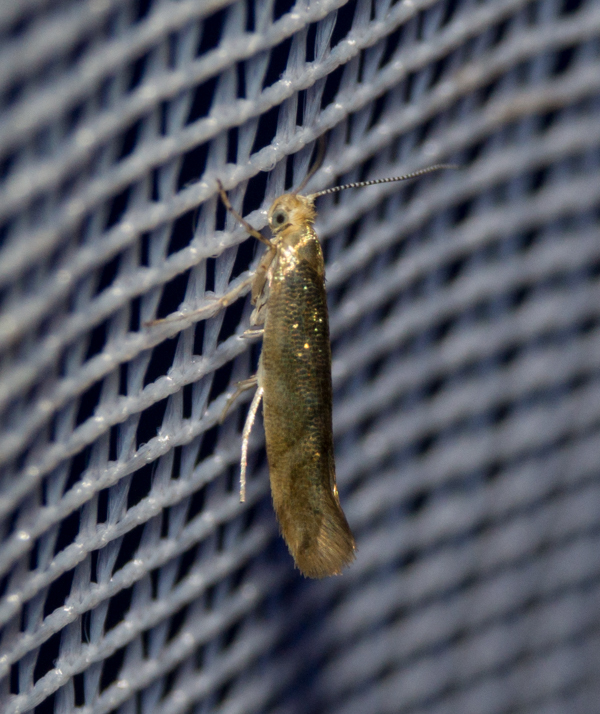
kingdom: Animalia
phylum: Arthropoda
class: Insecta
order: Lepidoptera
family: Argyresthiidae
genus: Argyresthia
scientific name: Argyresthia goedartella
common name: Golden argent
